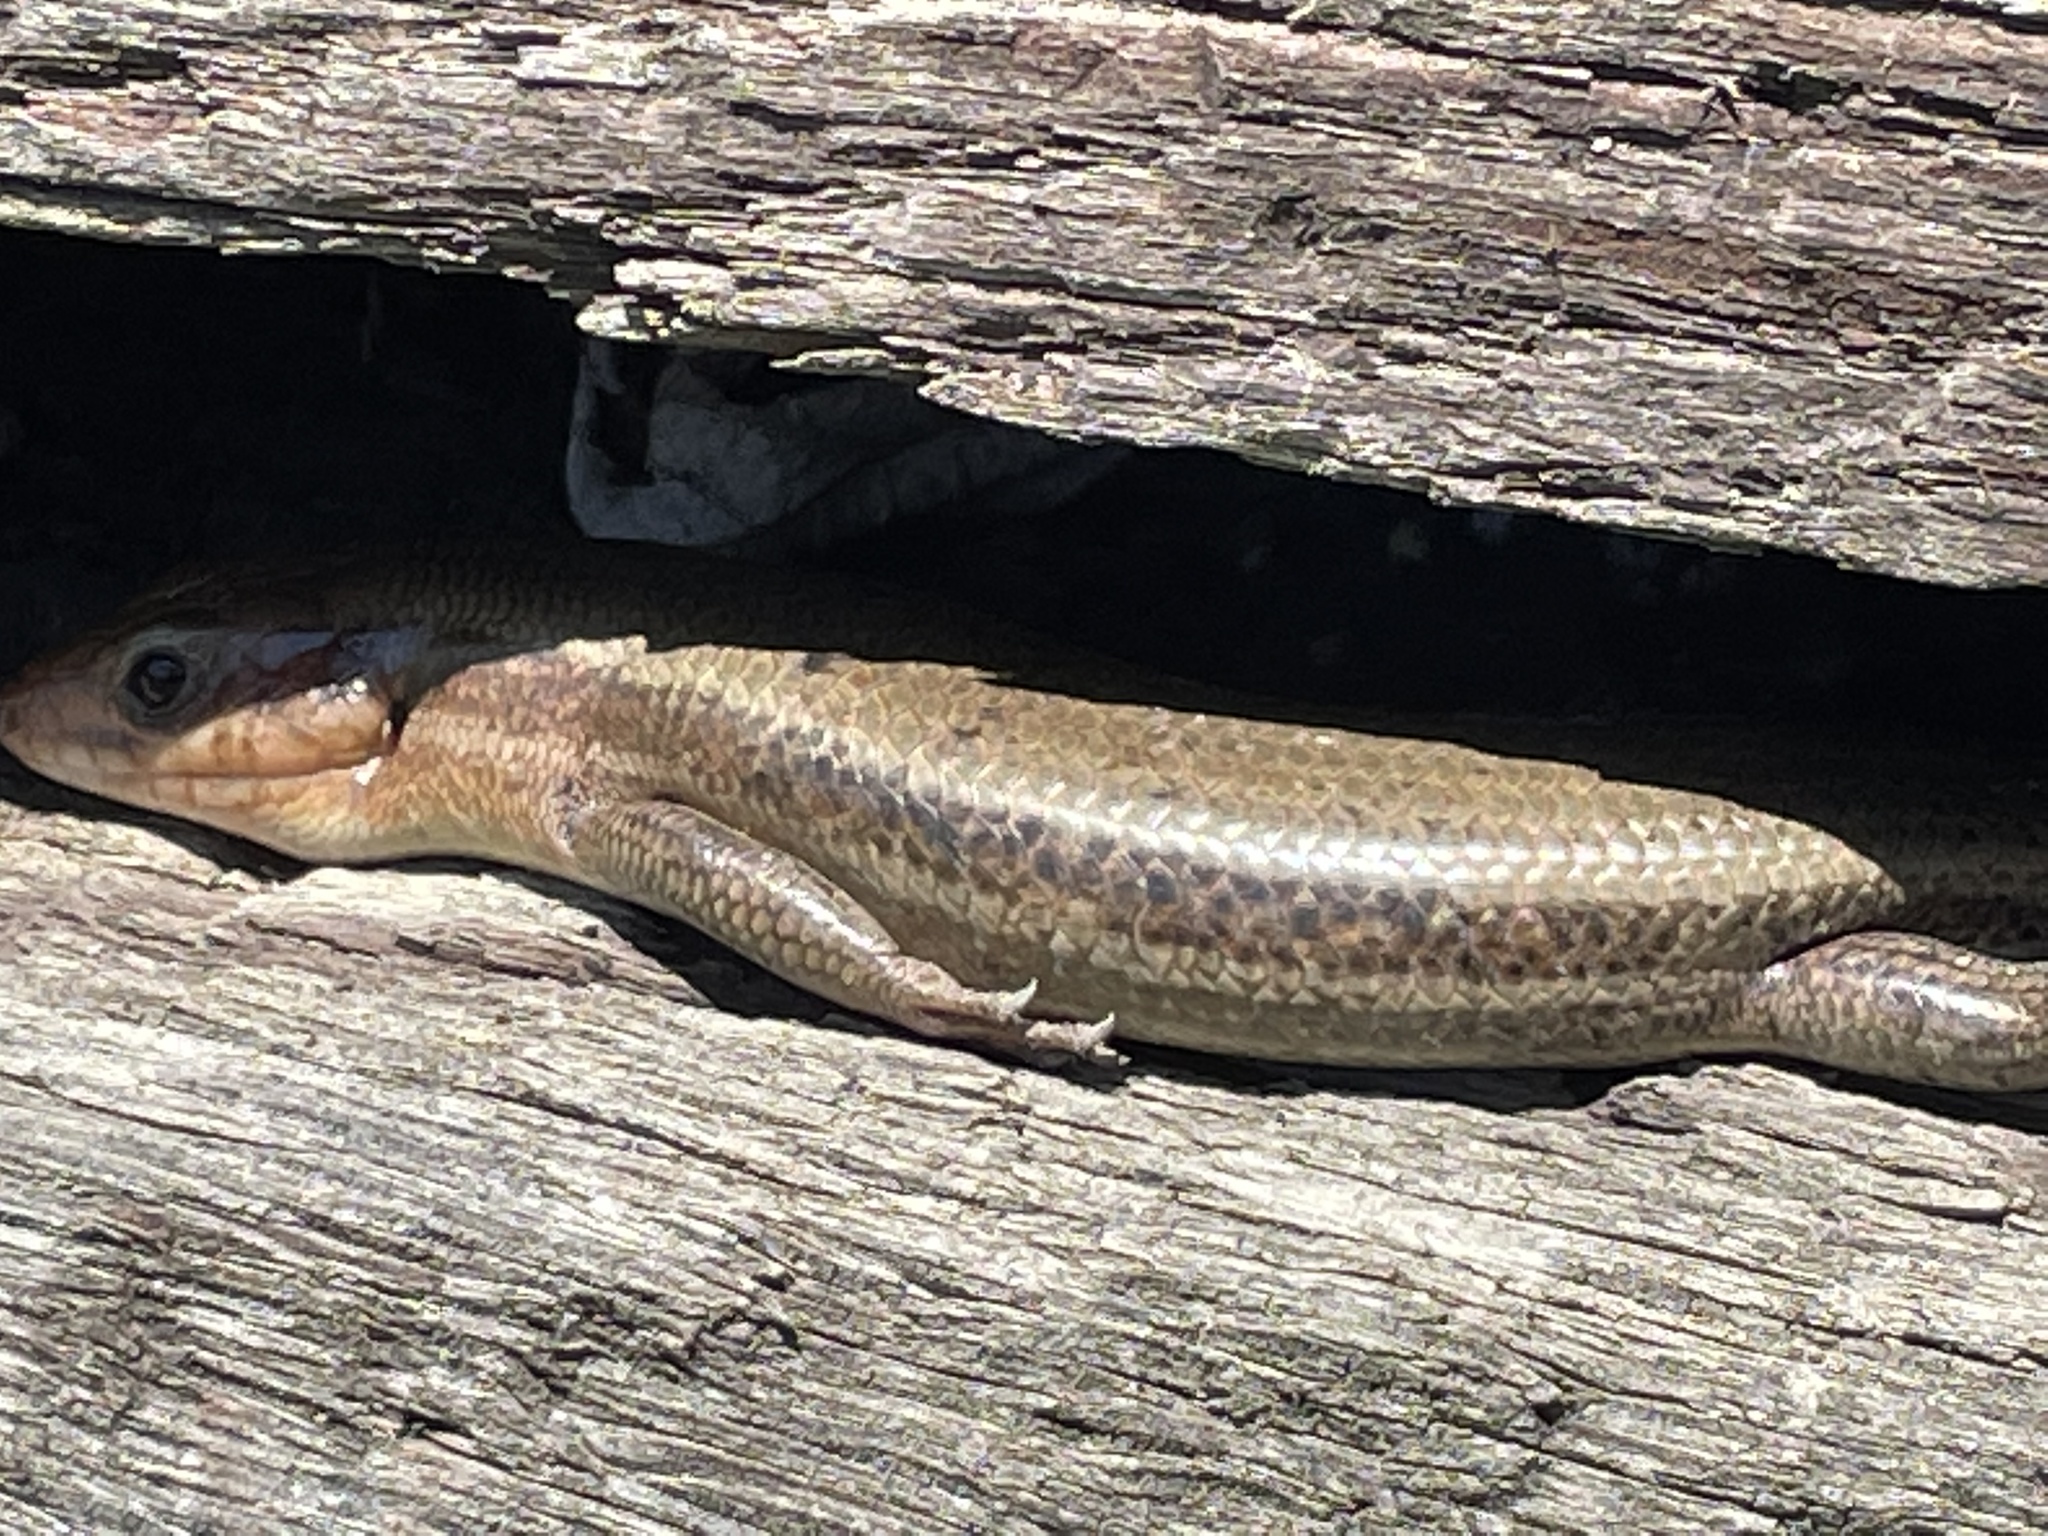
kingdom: Animalia
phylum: Chordata
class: Squamata
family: Scincidae
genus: Plestiodon
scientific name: Plestiodon laticeps
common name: Broadhead skink
